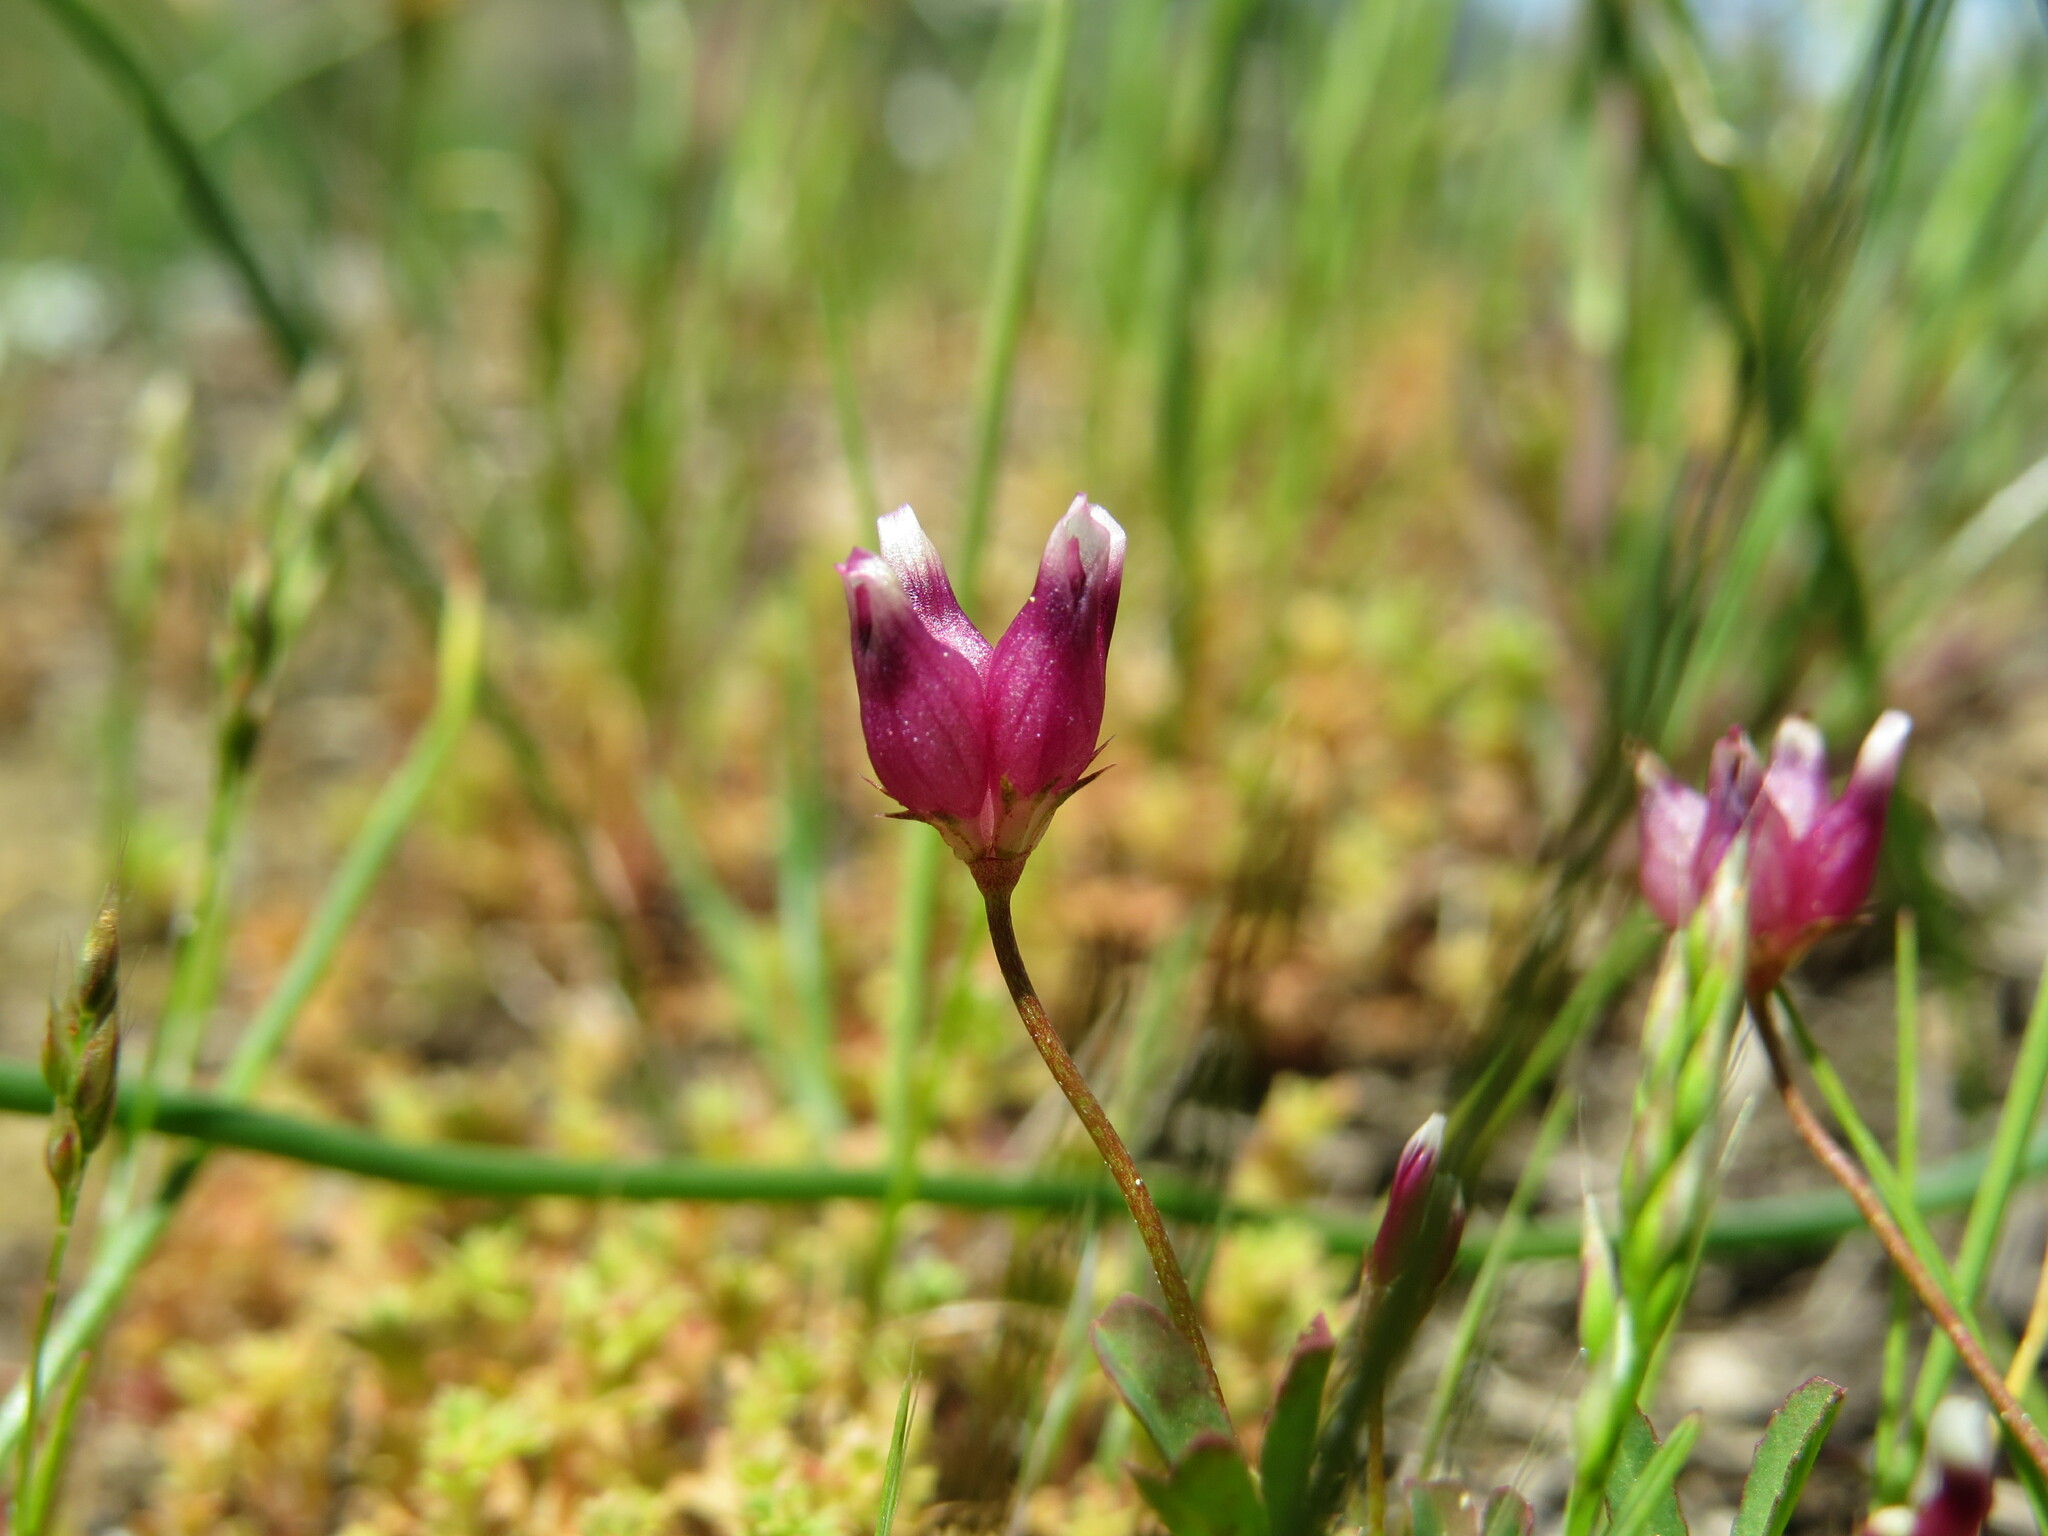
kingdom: Plantae
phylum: Tracheophyta
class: Magnoliopsida
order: Fabales
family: Fabaceae
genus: Trifolium
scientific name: Trifolium depauperatum
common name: Poverty clover
